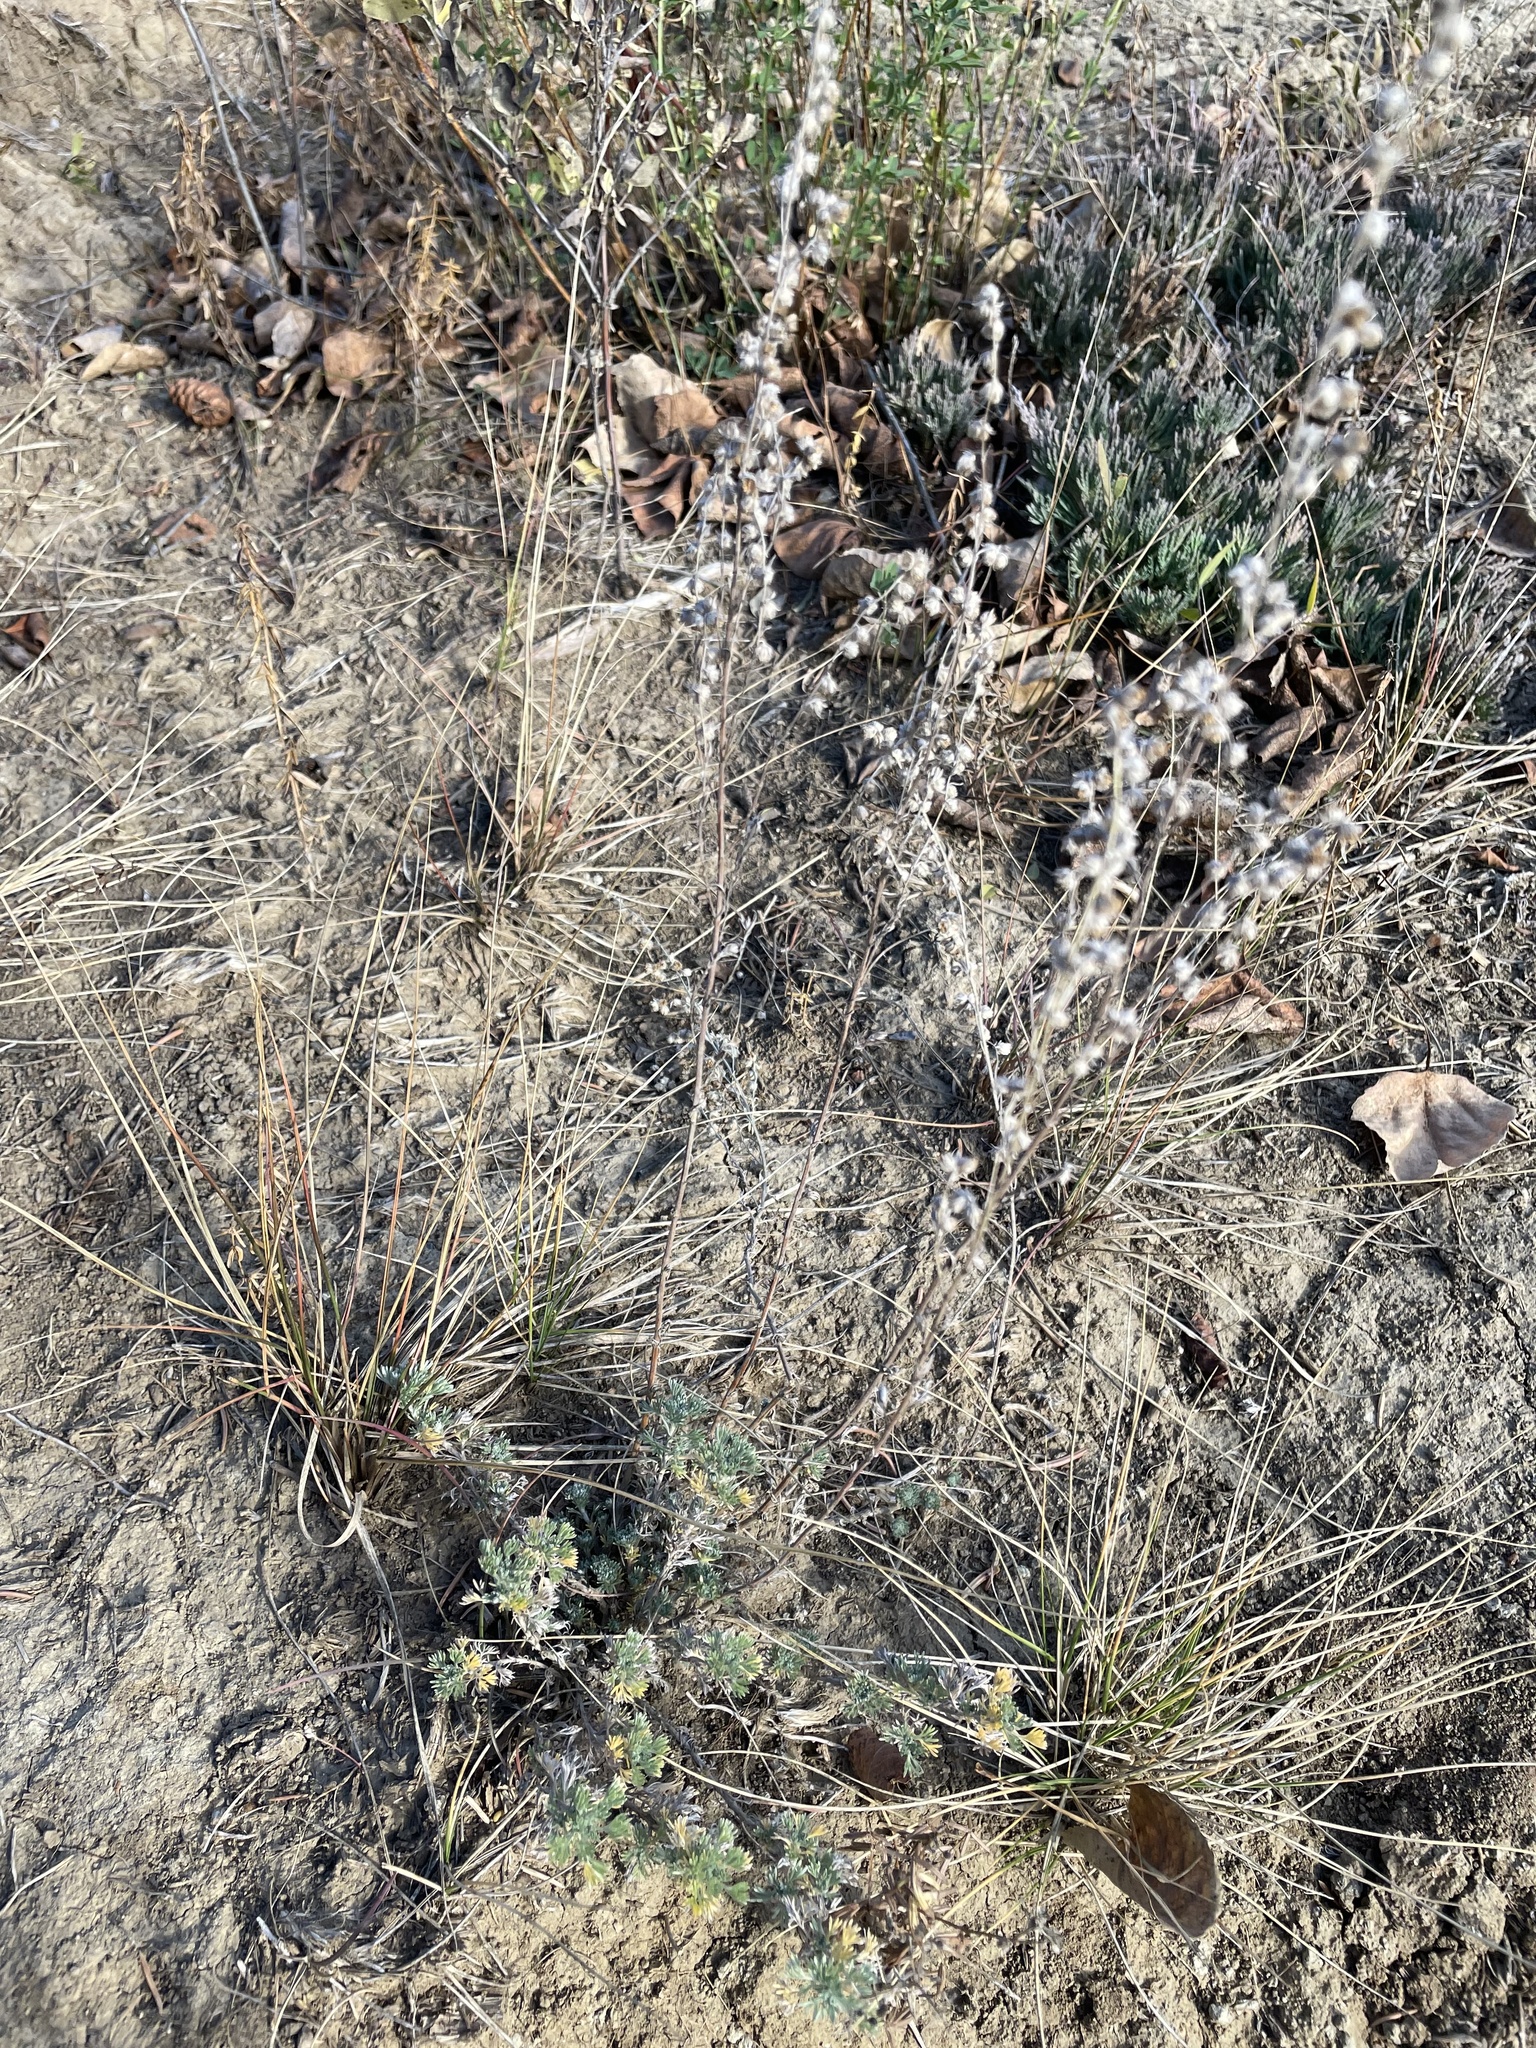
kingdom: Plantae
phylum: Tracheophyta
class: Magnoliopsida
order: Asterales
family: Asteraceae
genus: Artemisia
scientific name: Artemisia frigida
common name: Prairie sagewort
